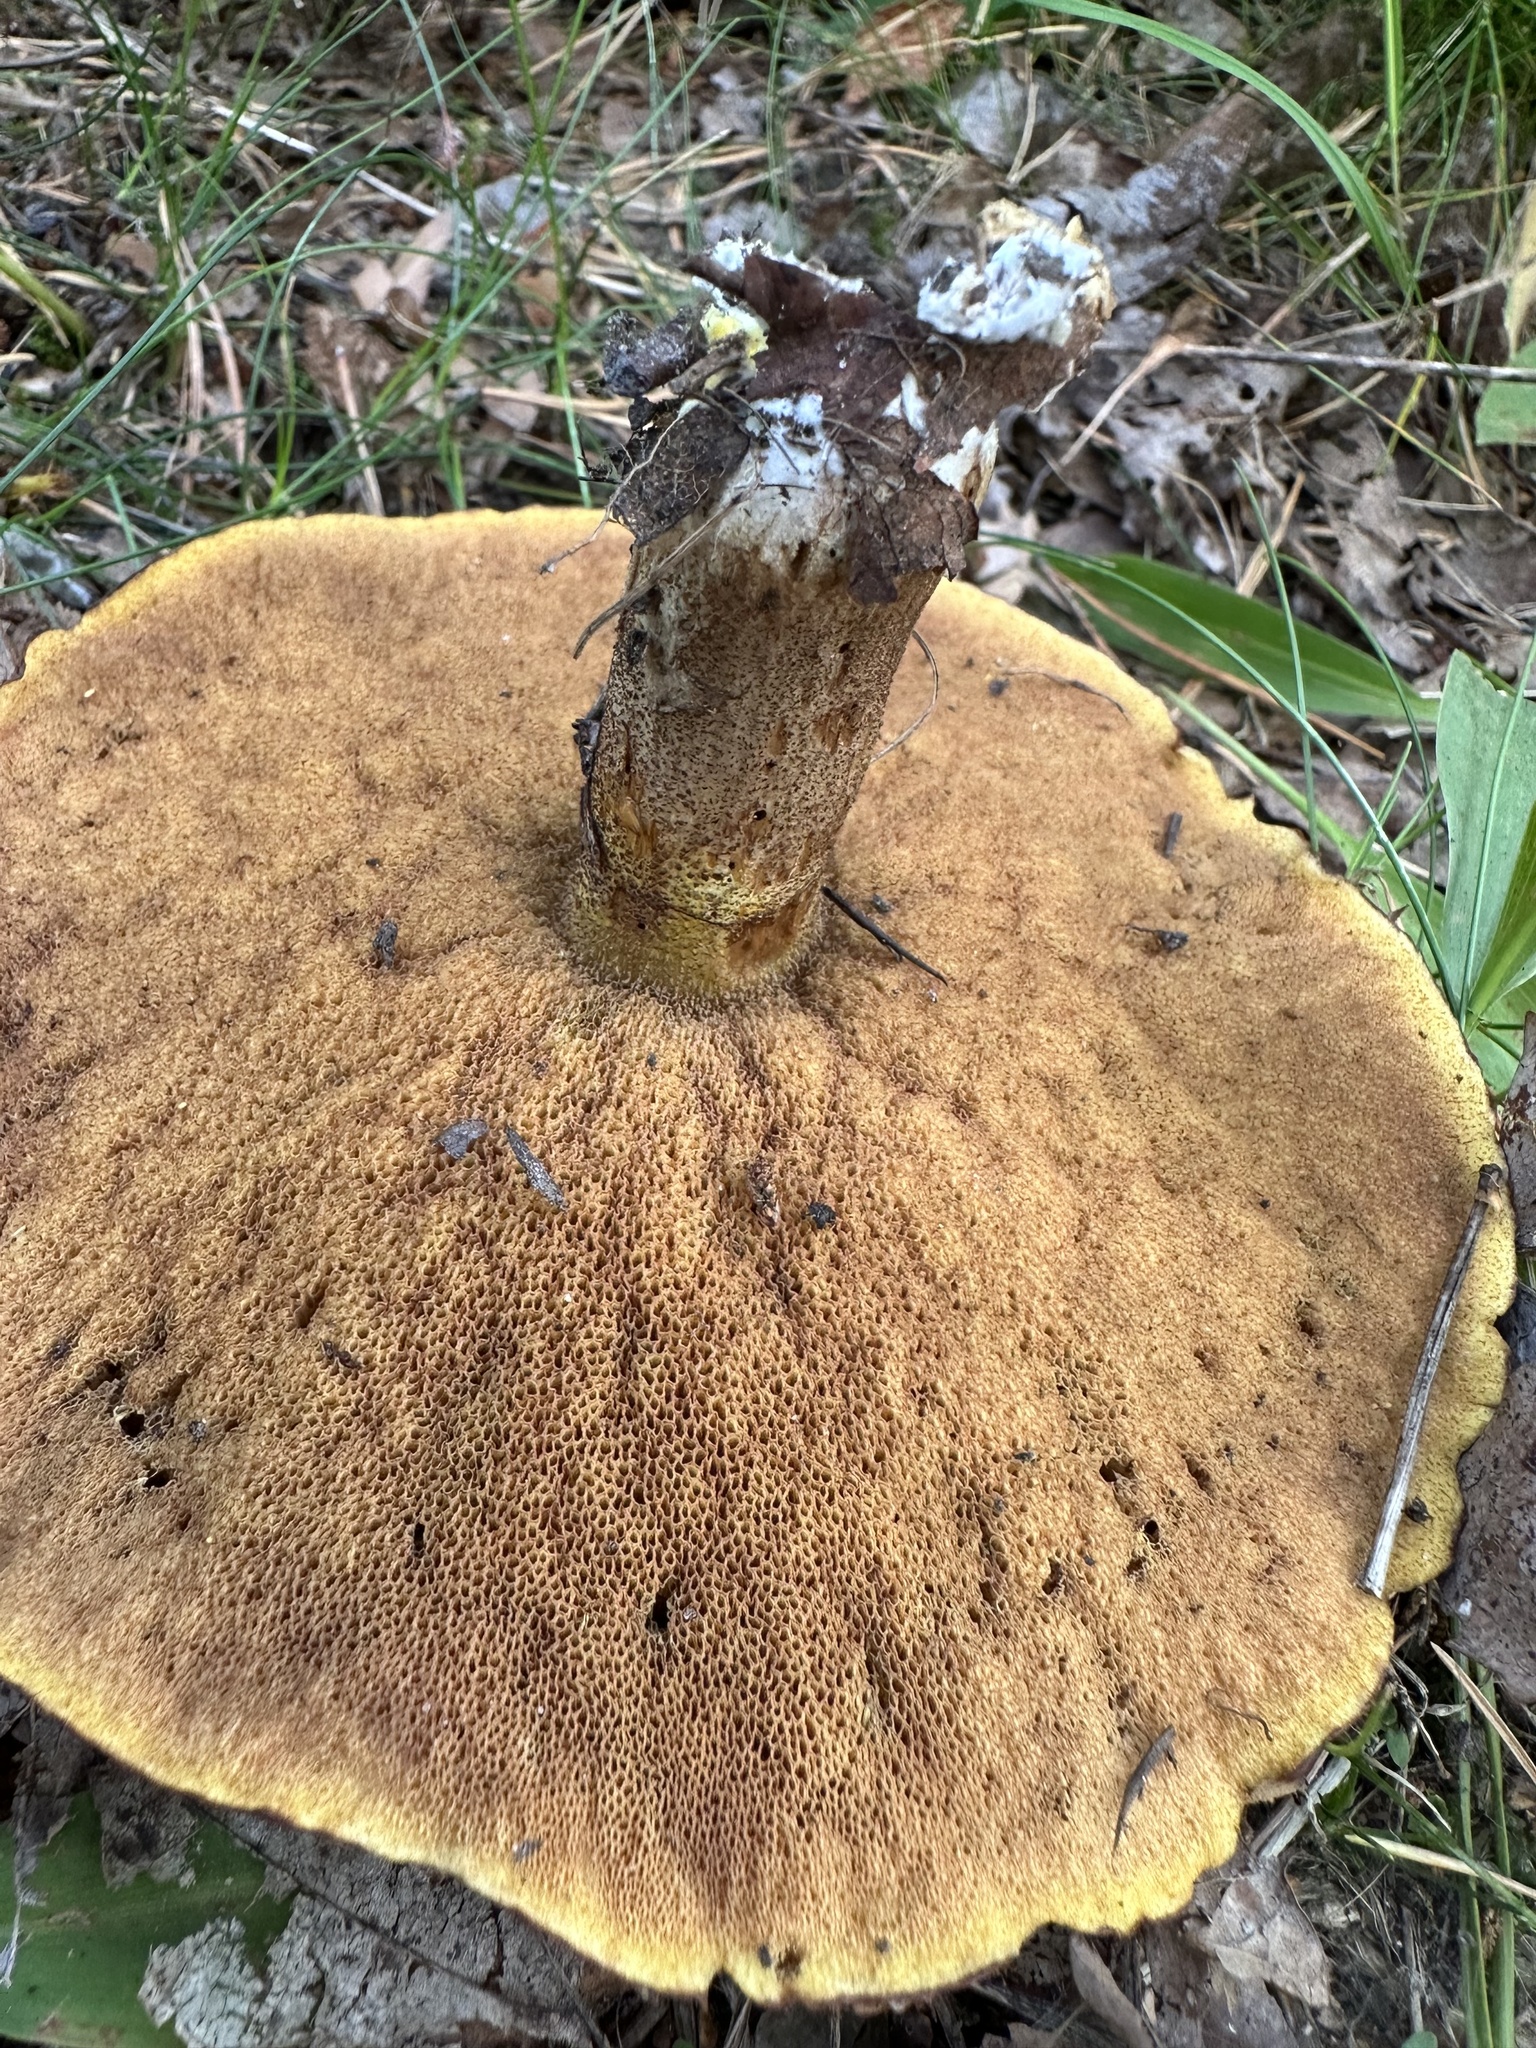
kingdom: Fungi
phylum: Basidiomycota
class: Agaricomycetes
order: Boletales
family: Suillaceae
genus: Suillus
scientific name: Suillus luteus
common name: Slippery jack
